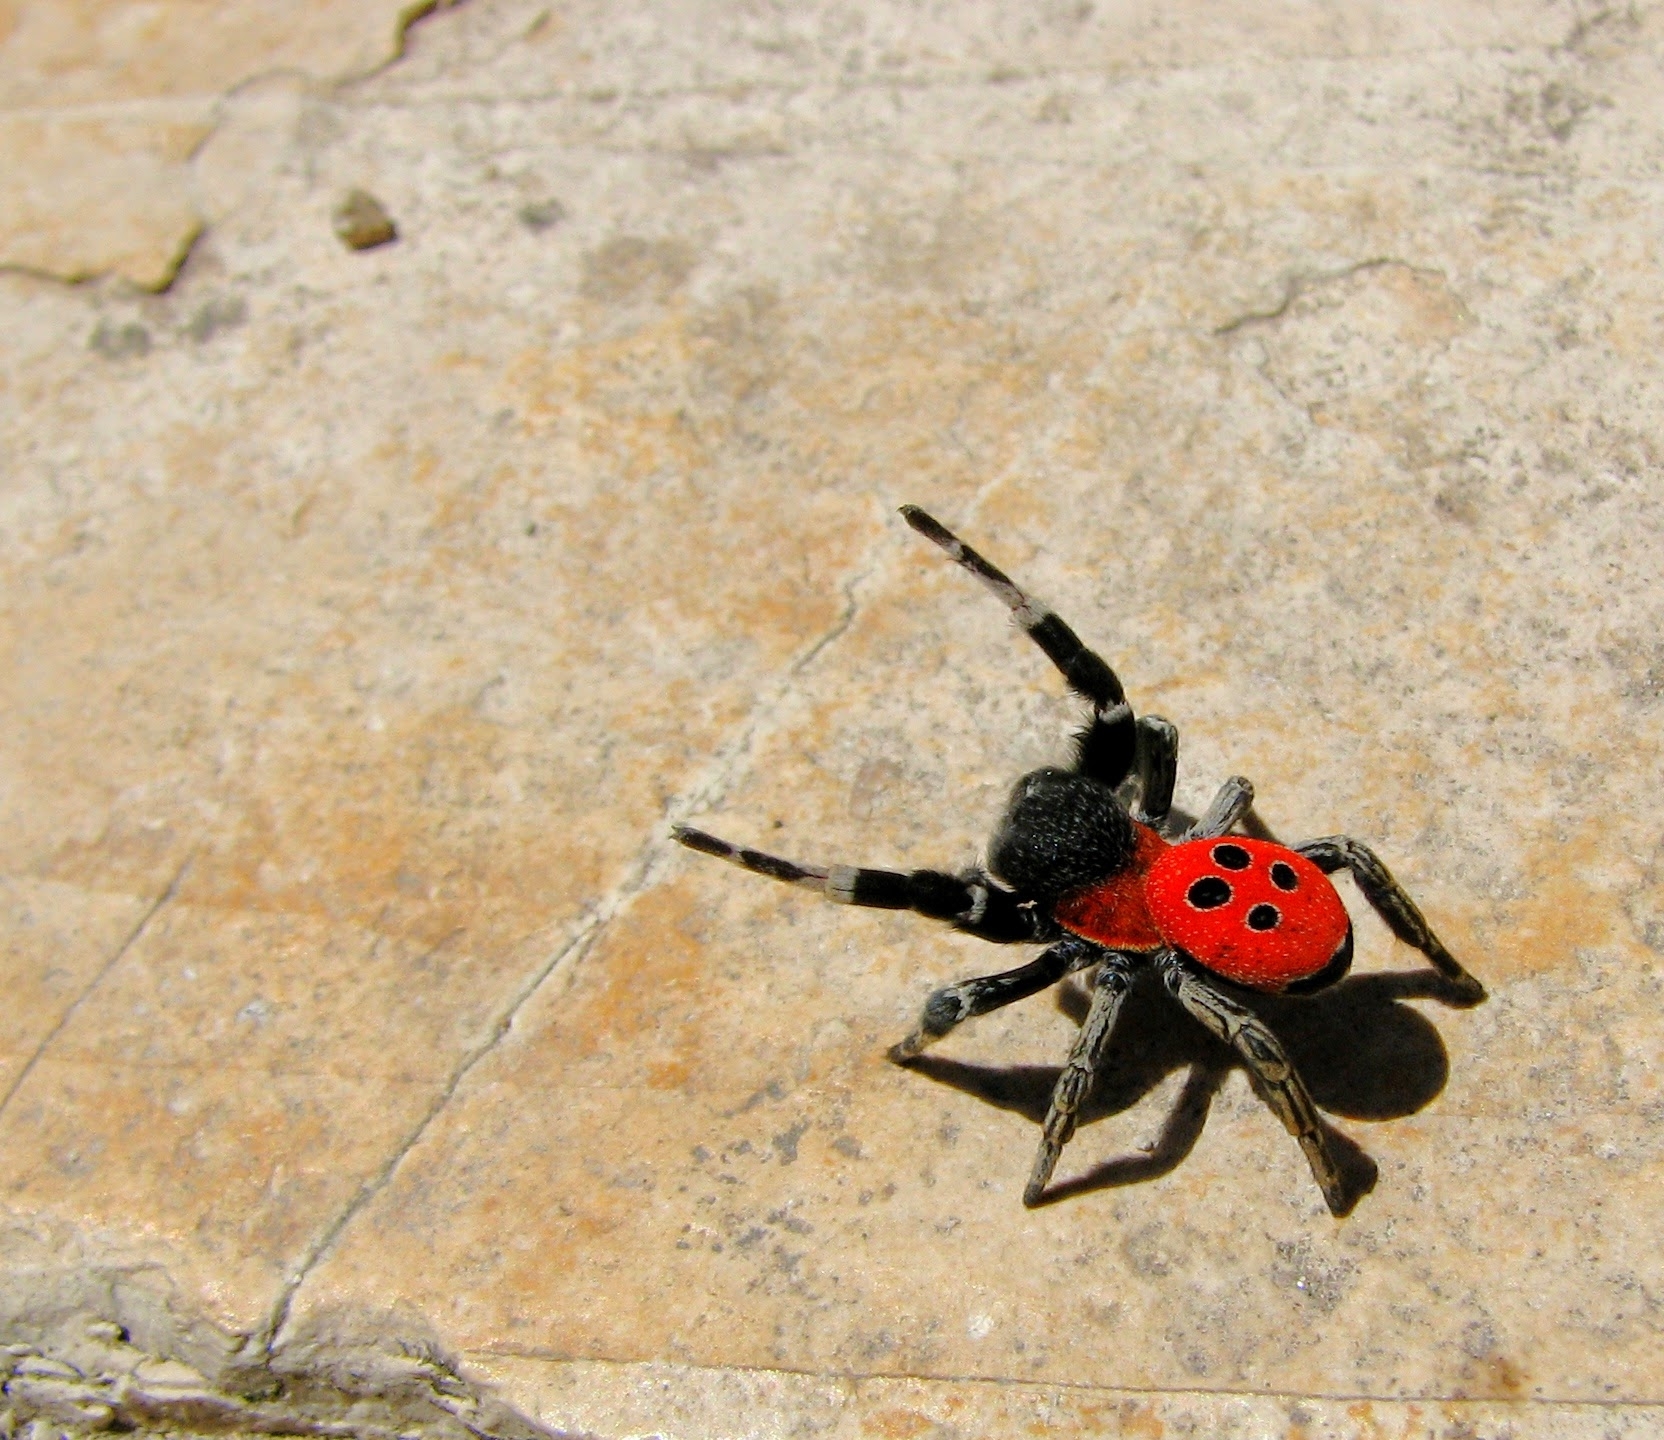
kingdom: Animalia
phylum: Arthropoda
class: Arachnida
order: Araneae
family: Eresidae
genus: Eresus
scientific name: Eresus walckenaeri
